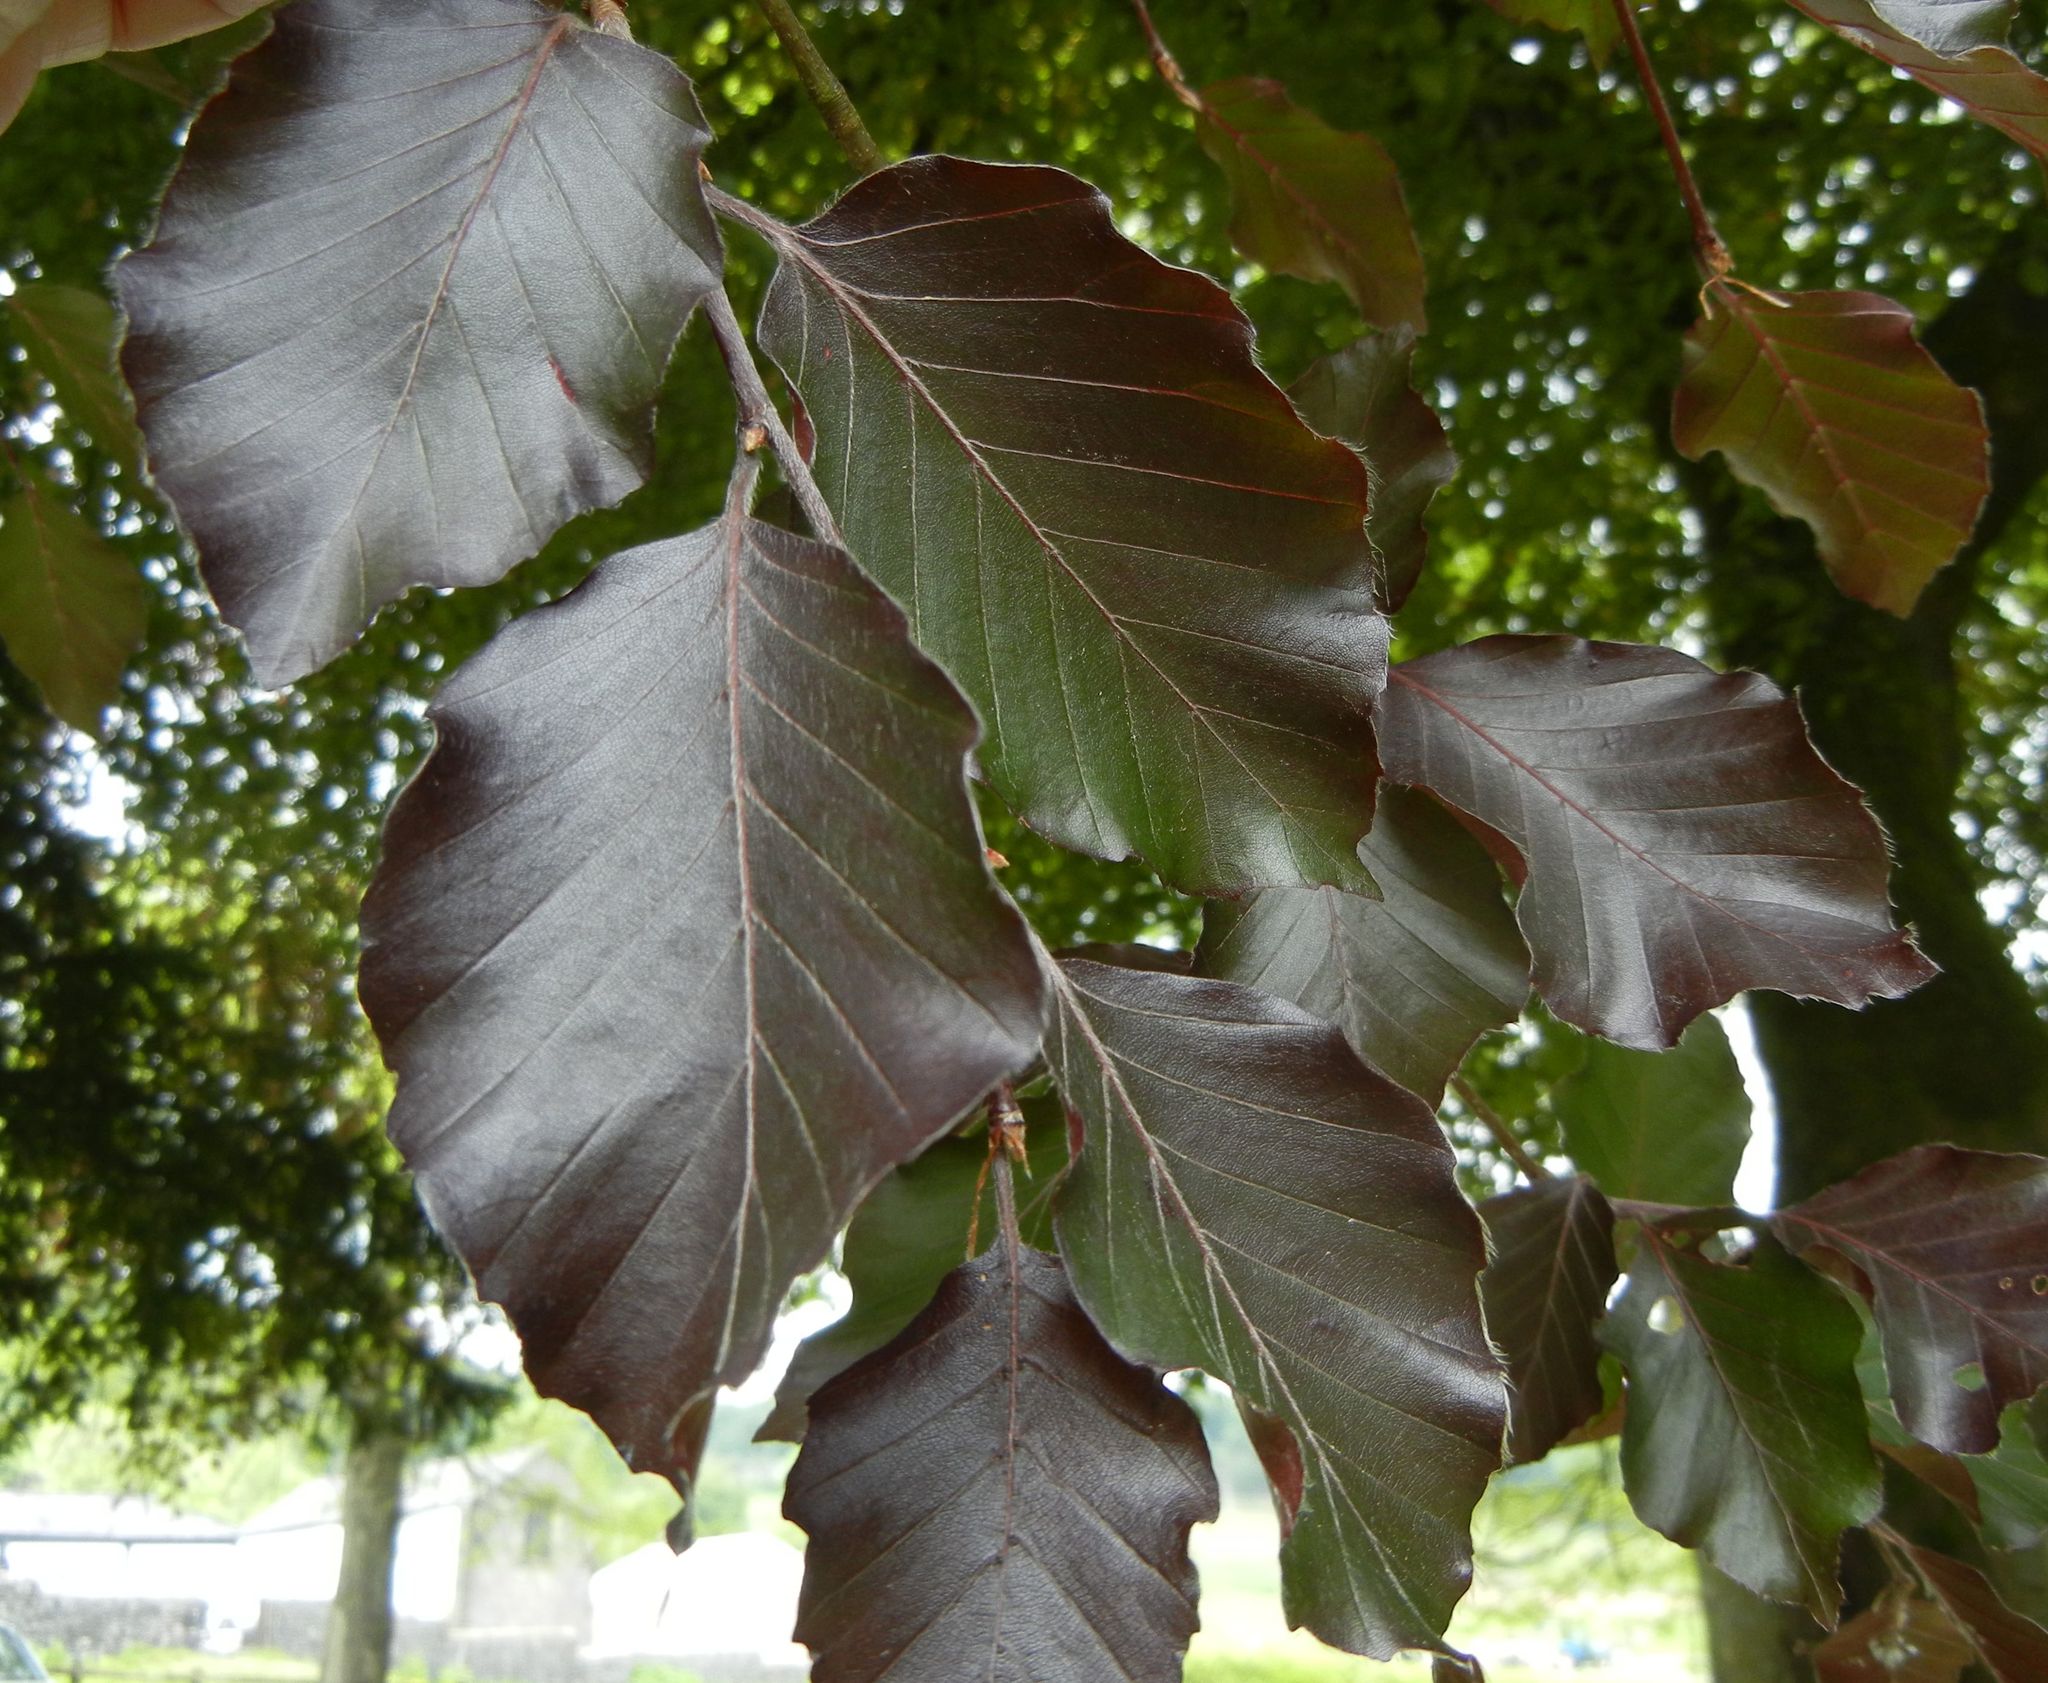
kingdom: Plantae
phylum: Tracheophyta
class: Magnoliopsida
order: Fagales
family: Fagaceae
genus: Fagus
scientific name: Fagus sylvatica
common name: Beech
